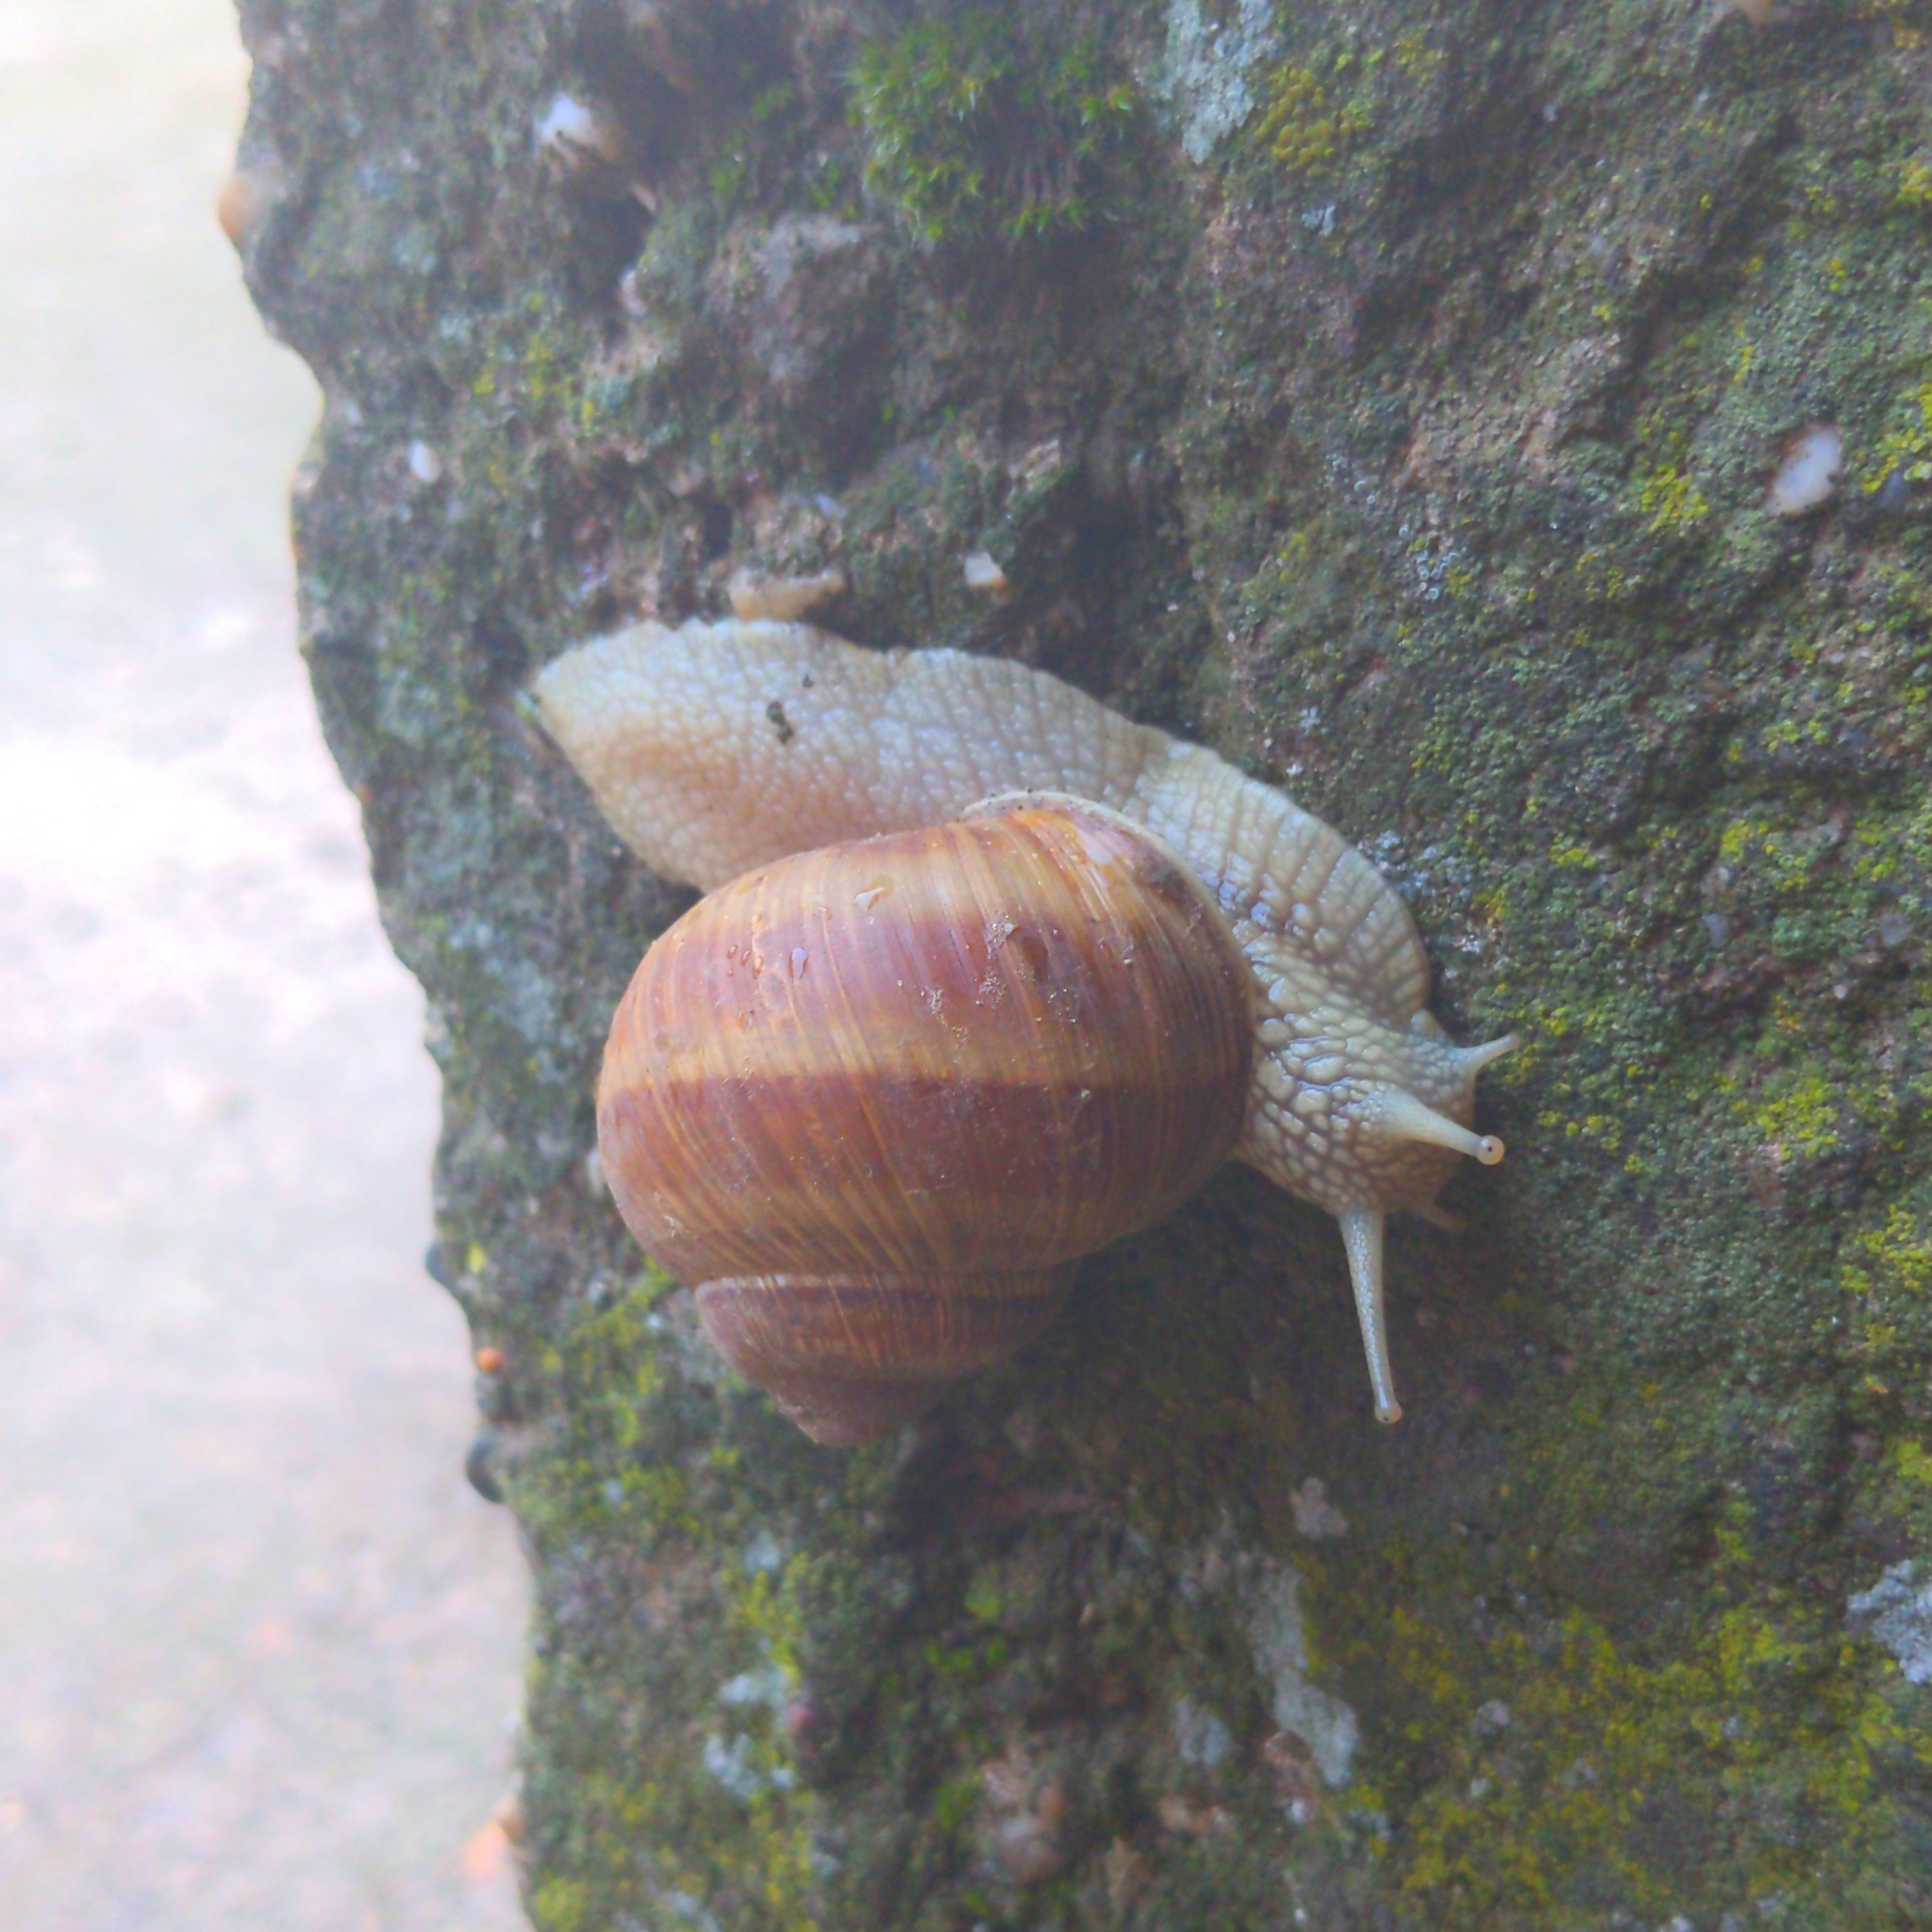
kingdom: Animalia
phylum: Mollusca
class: Gastropoda
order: Stylommatophora
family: Helicidae
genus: Helix
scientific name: Helix pomatia
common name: Roman snail
